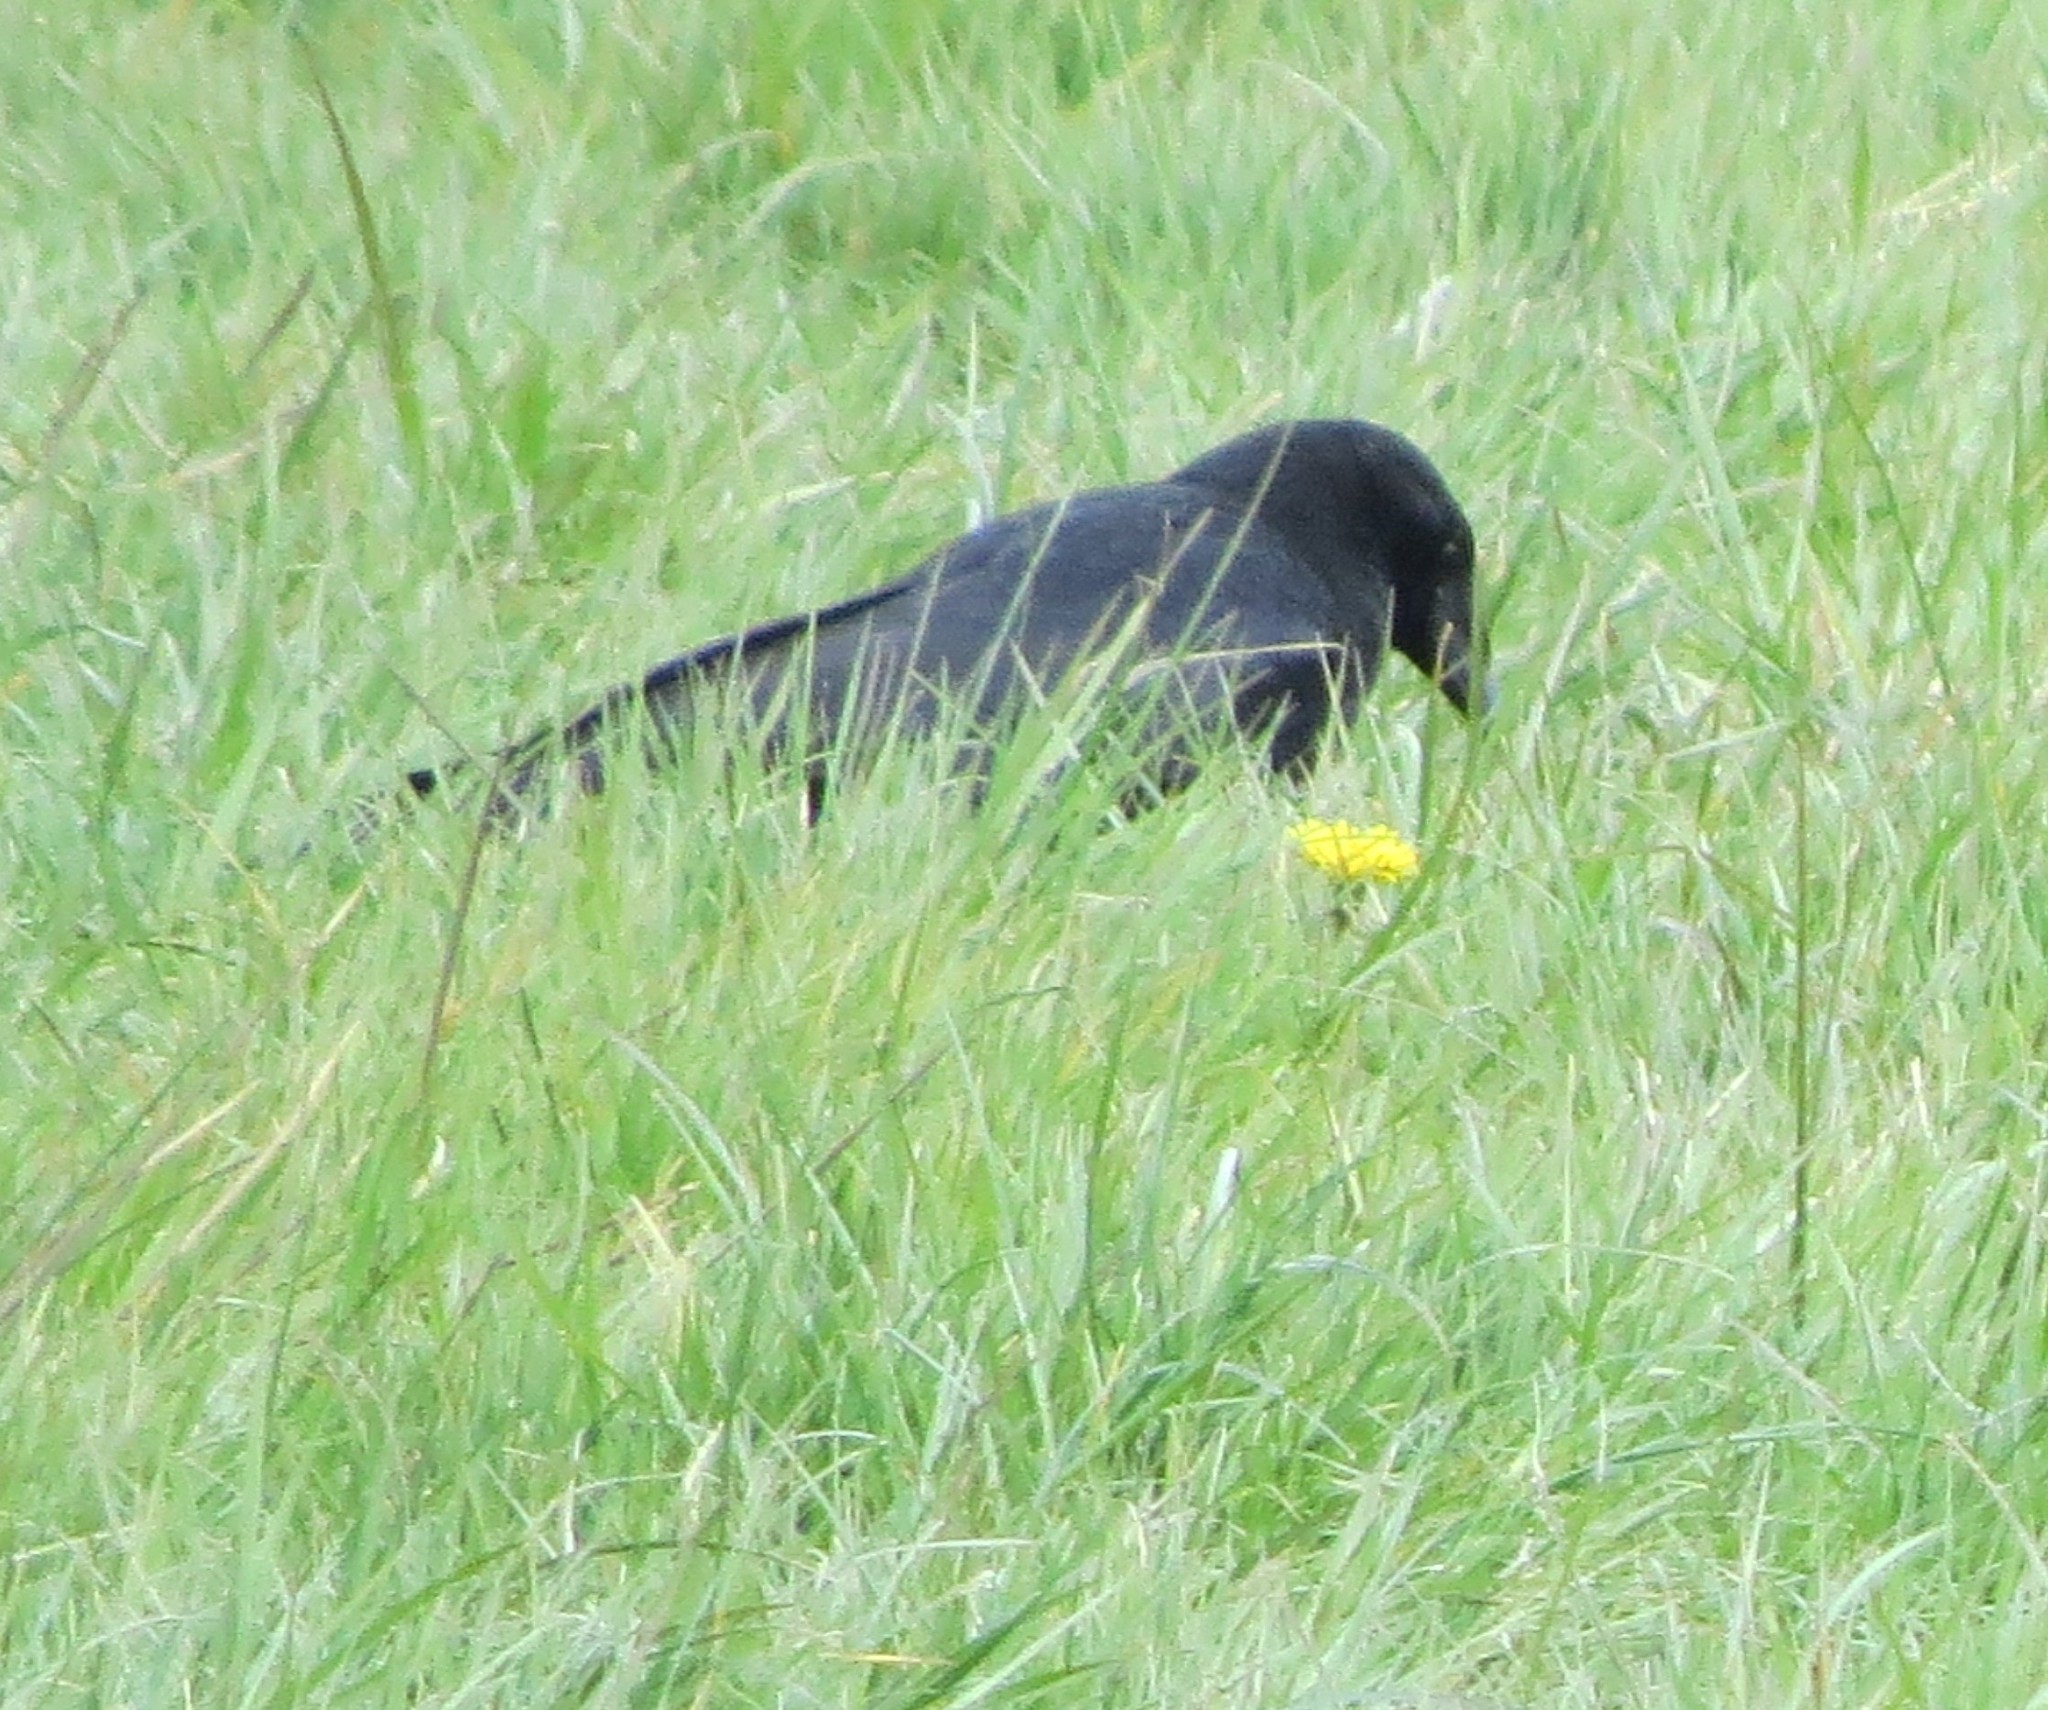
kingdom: Animalia
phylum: Chordata
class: Aves
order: Passeriformes
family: Corvidae
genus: Corvus
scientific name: Corvus corone
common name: Carrion crow
